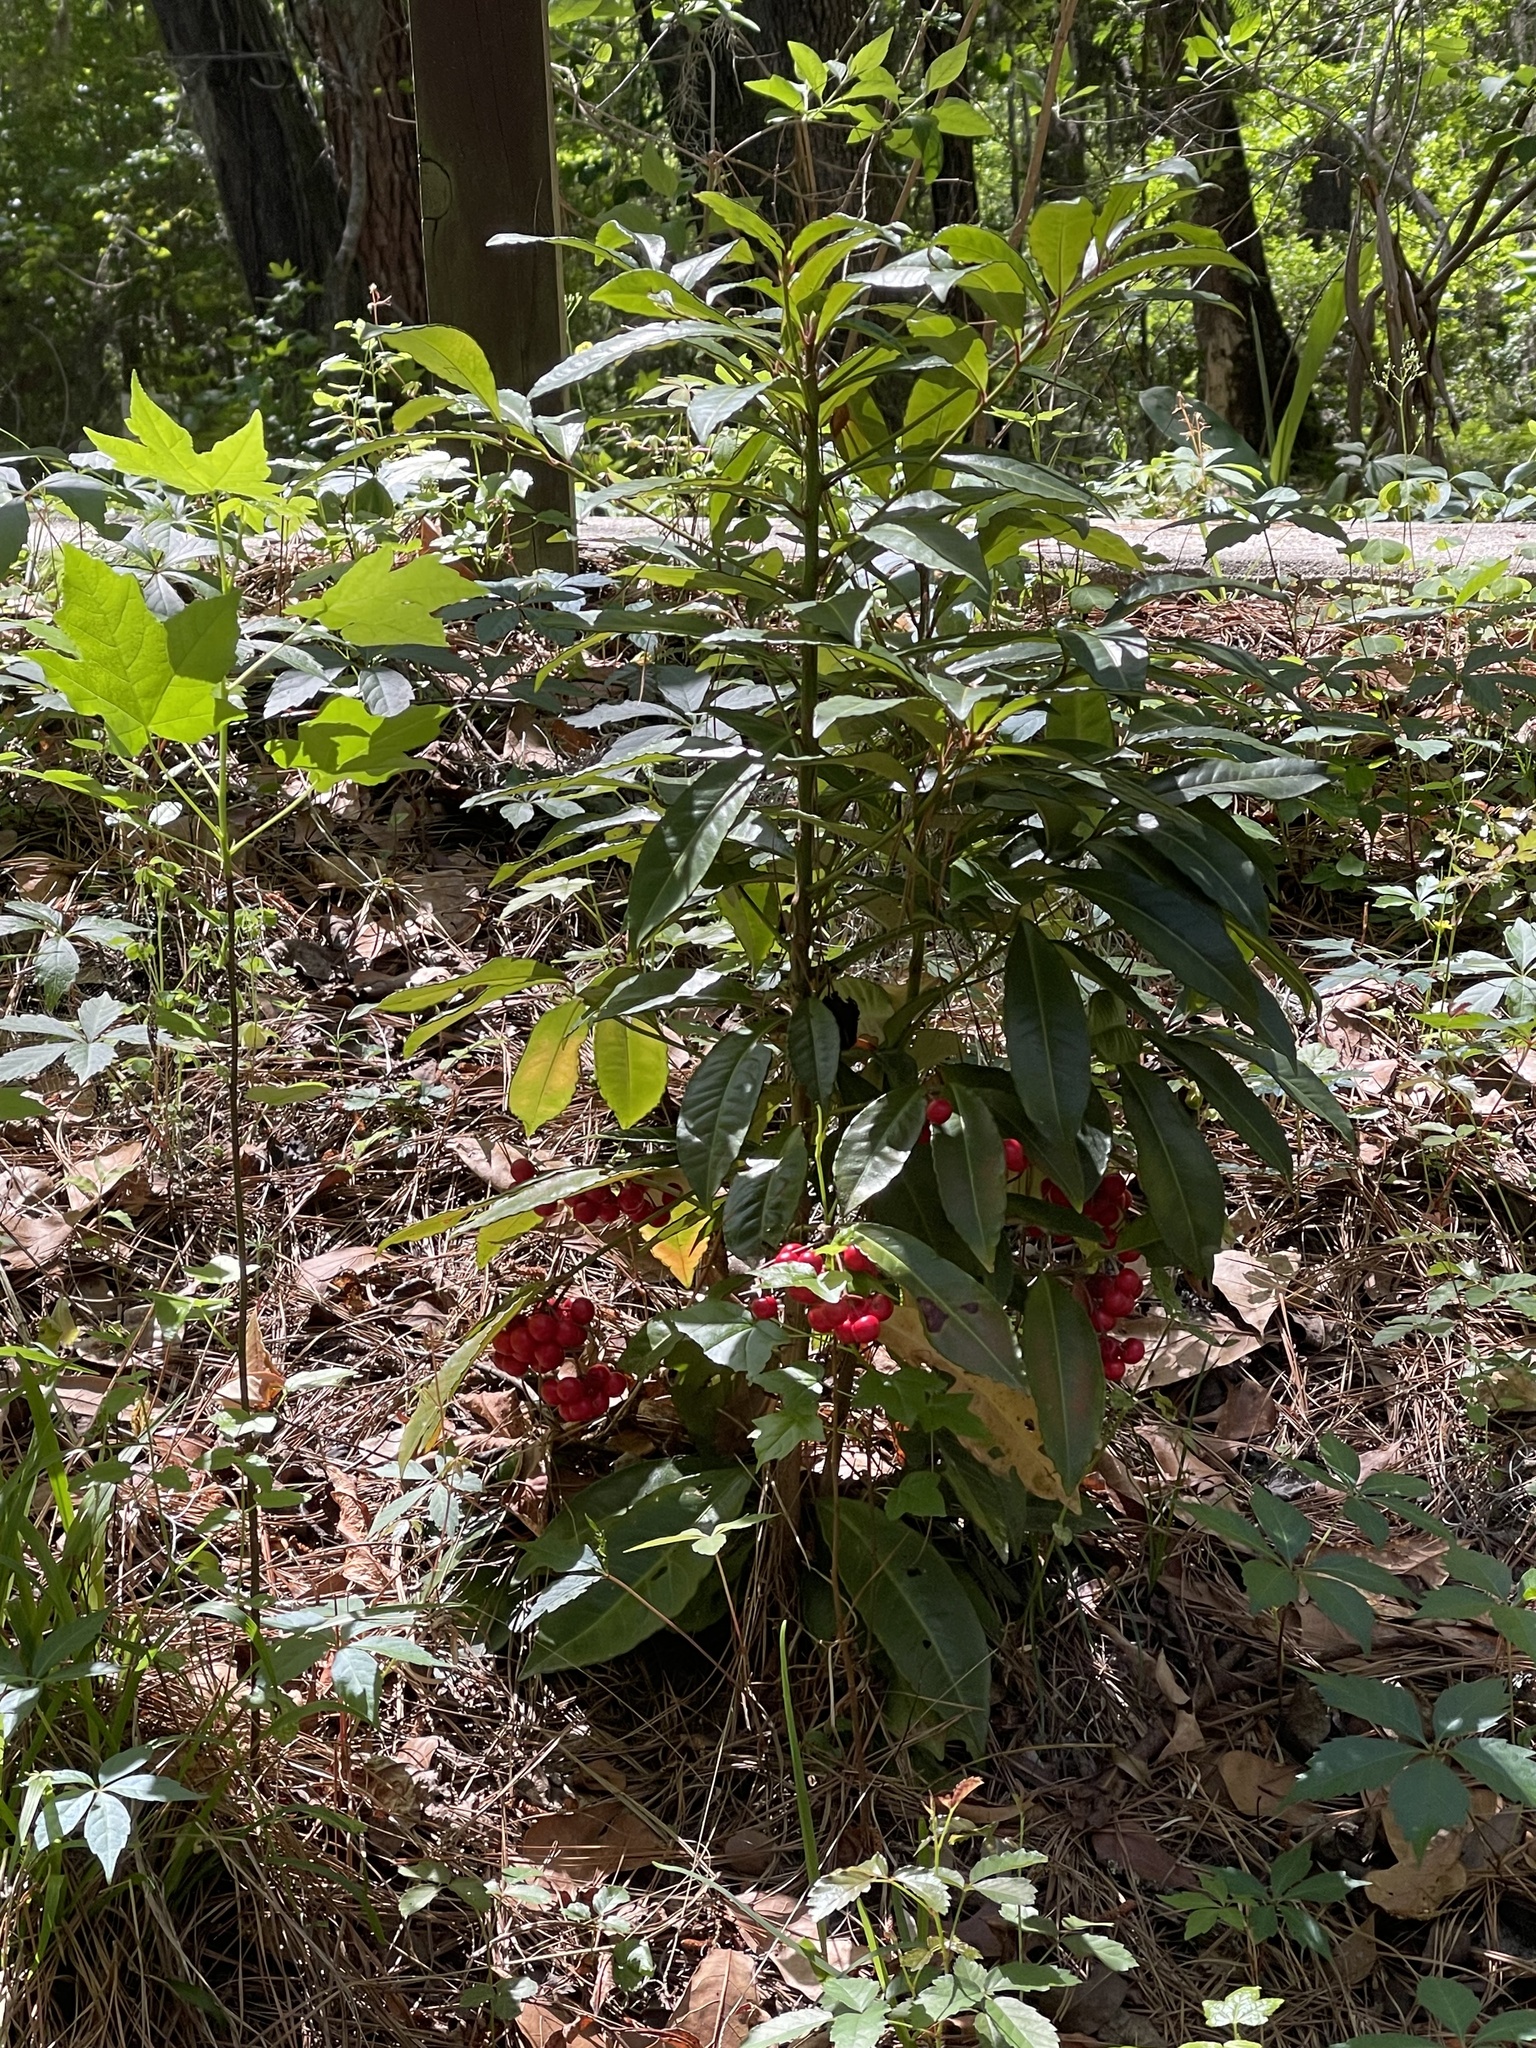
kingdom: Plantae
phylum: Tracheophyta
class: Magnoliopsida
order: Ericales
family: Primulaceae
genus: Ardisia
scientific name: Ardisia crenata
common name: Hen's eyes
